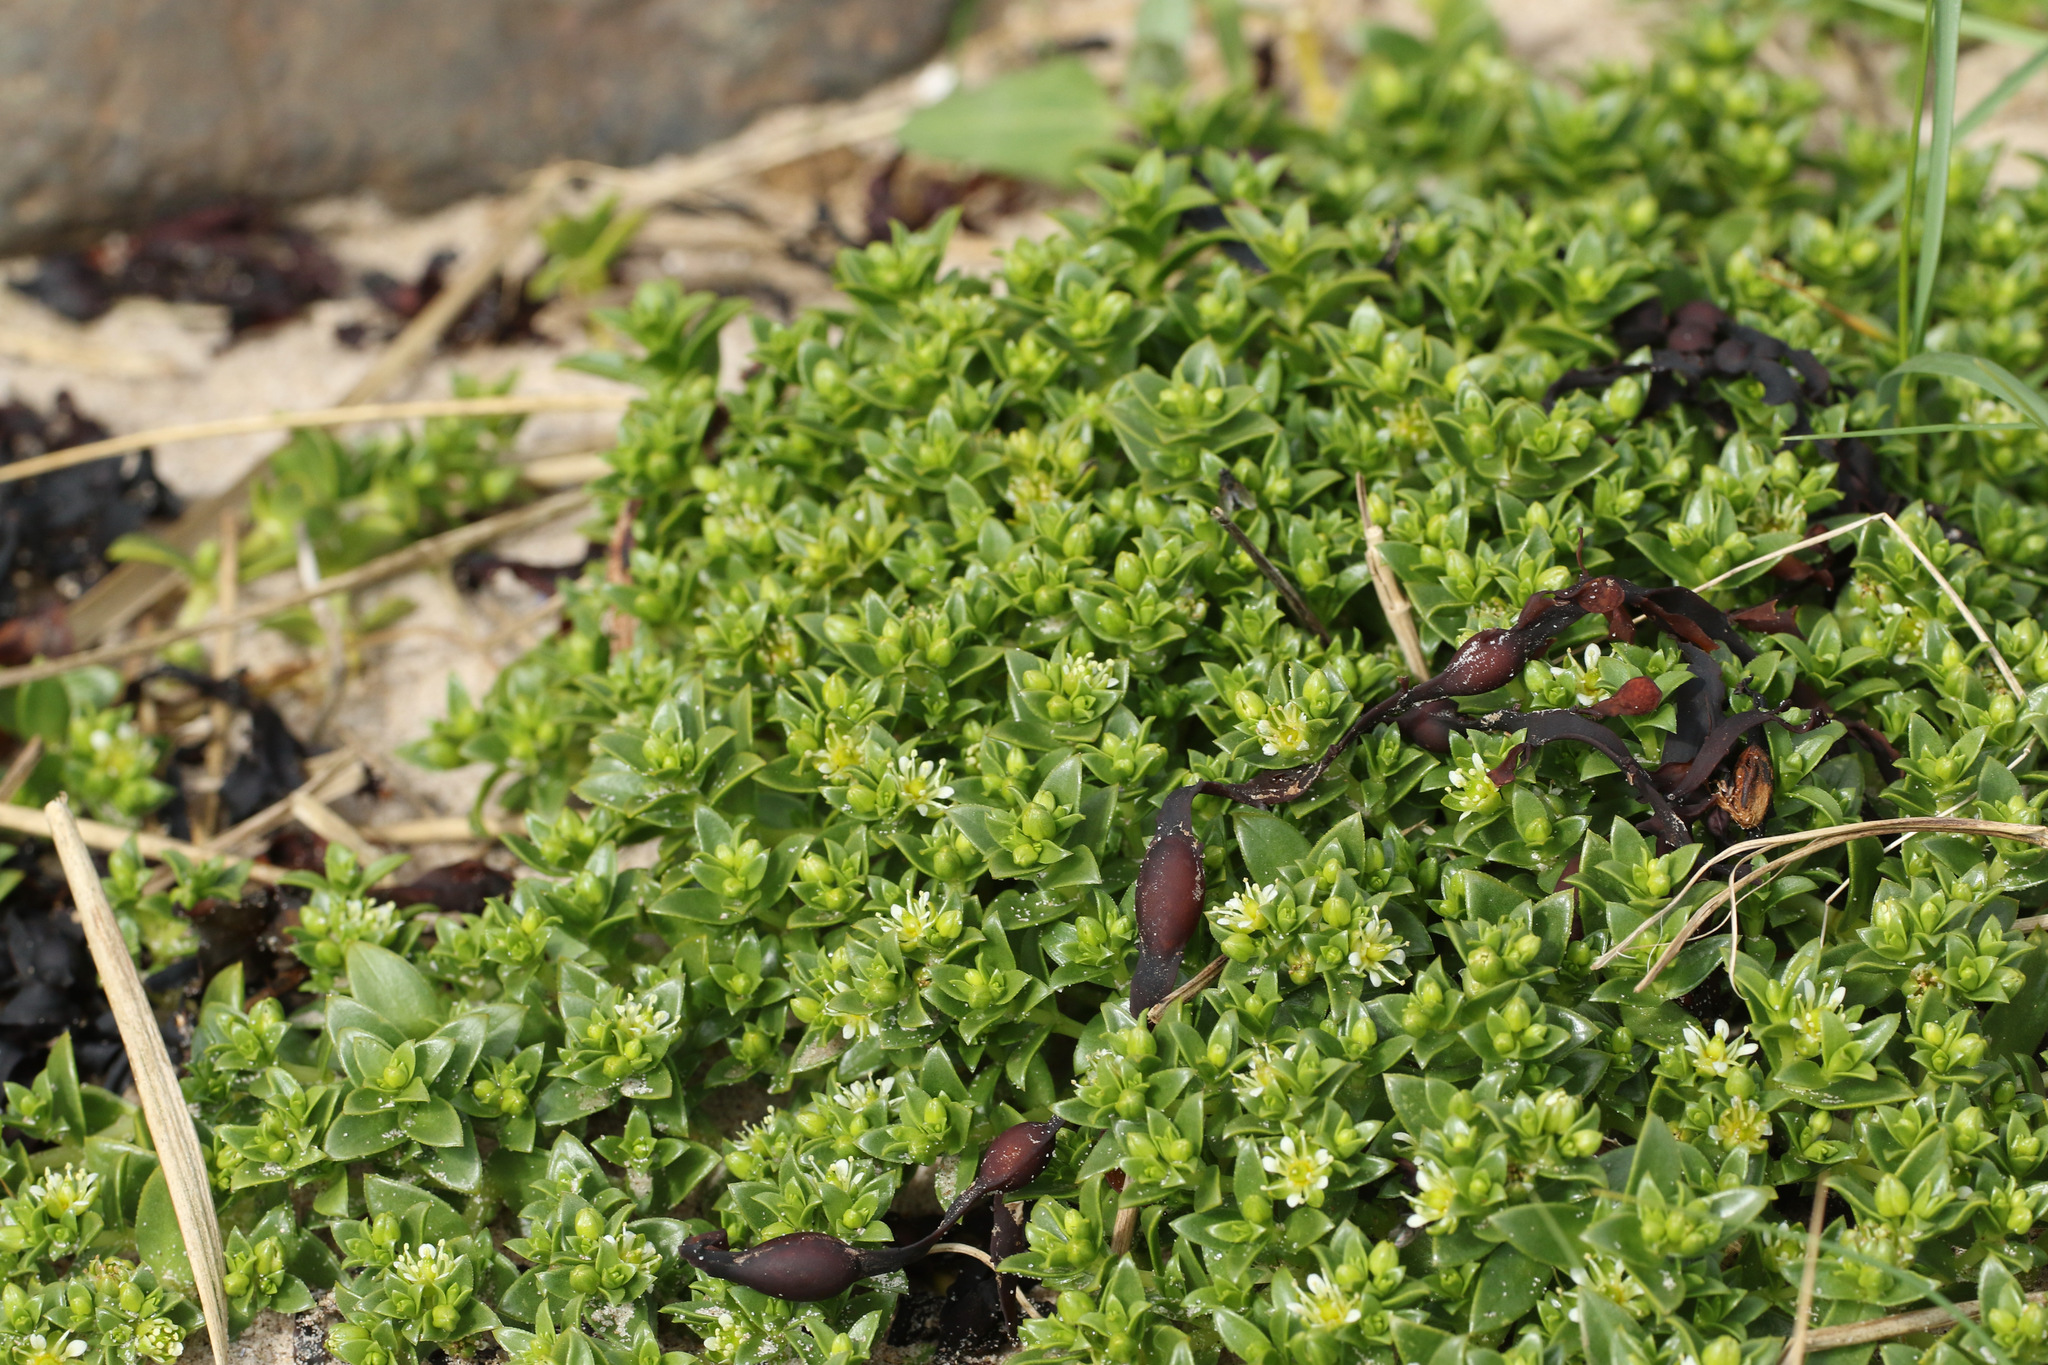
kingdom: Plantae
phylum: Tracheophyta
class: Magnoliopsida
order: Caryophyllales
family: Caryophyllaceae
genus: Honckenya
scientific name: Honckenya peploides
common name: Sea sandwort
